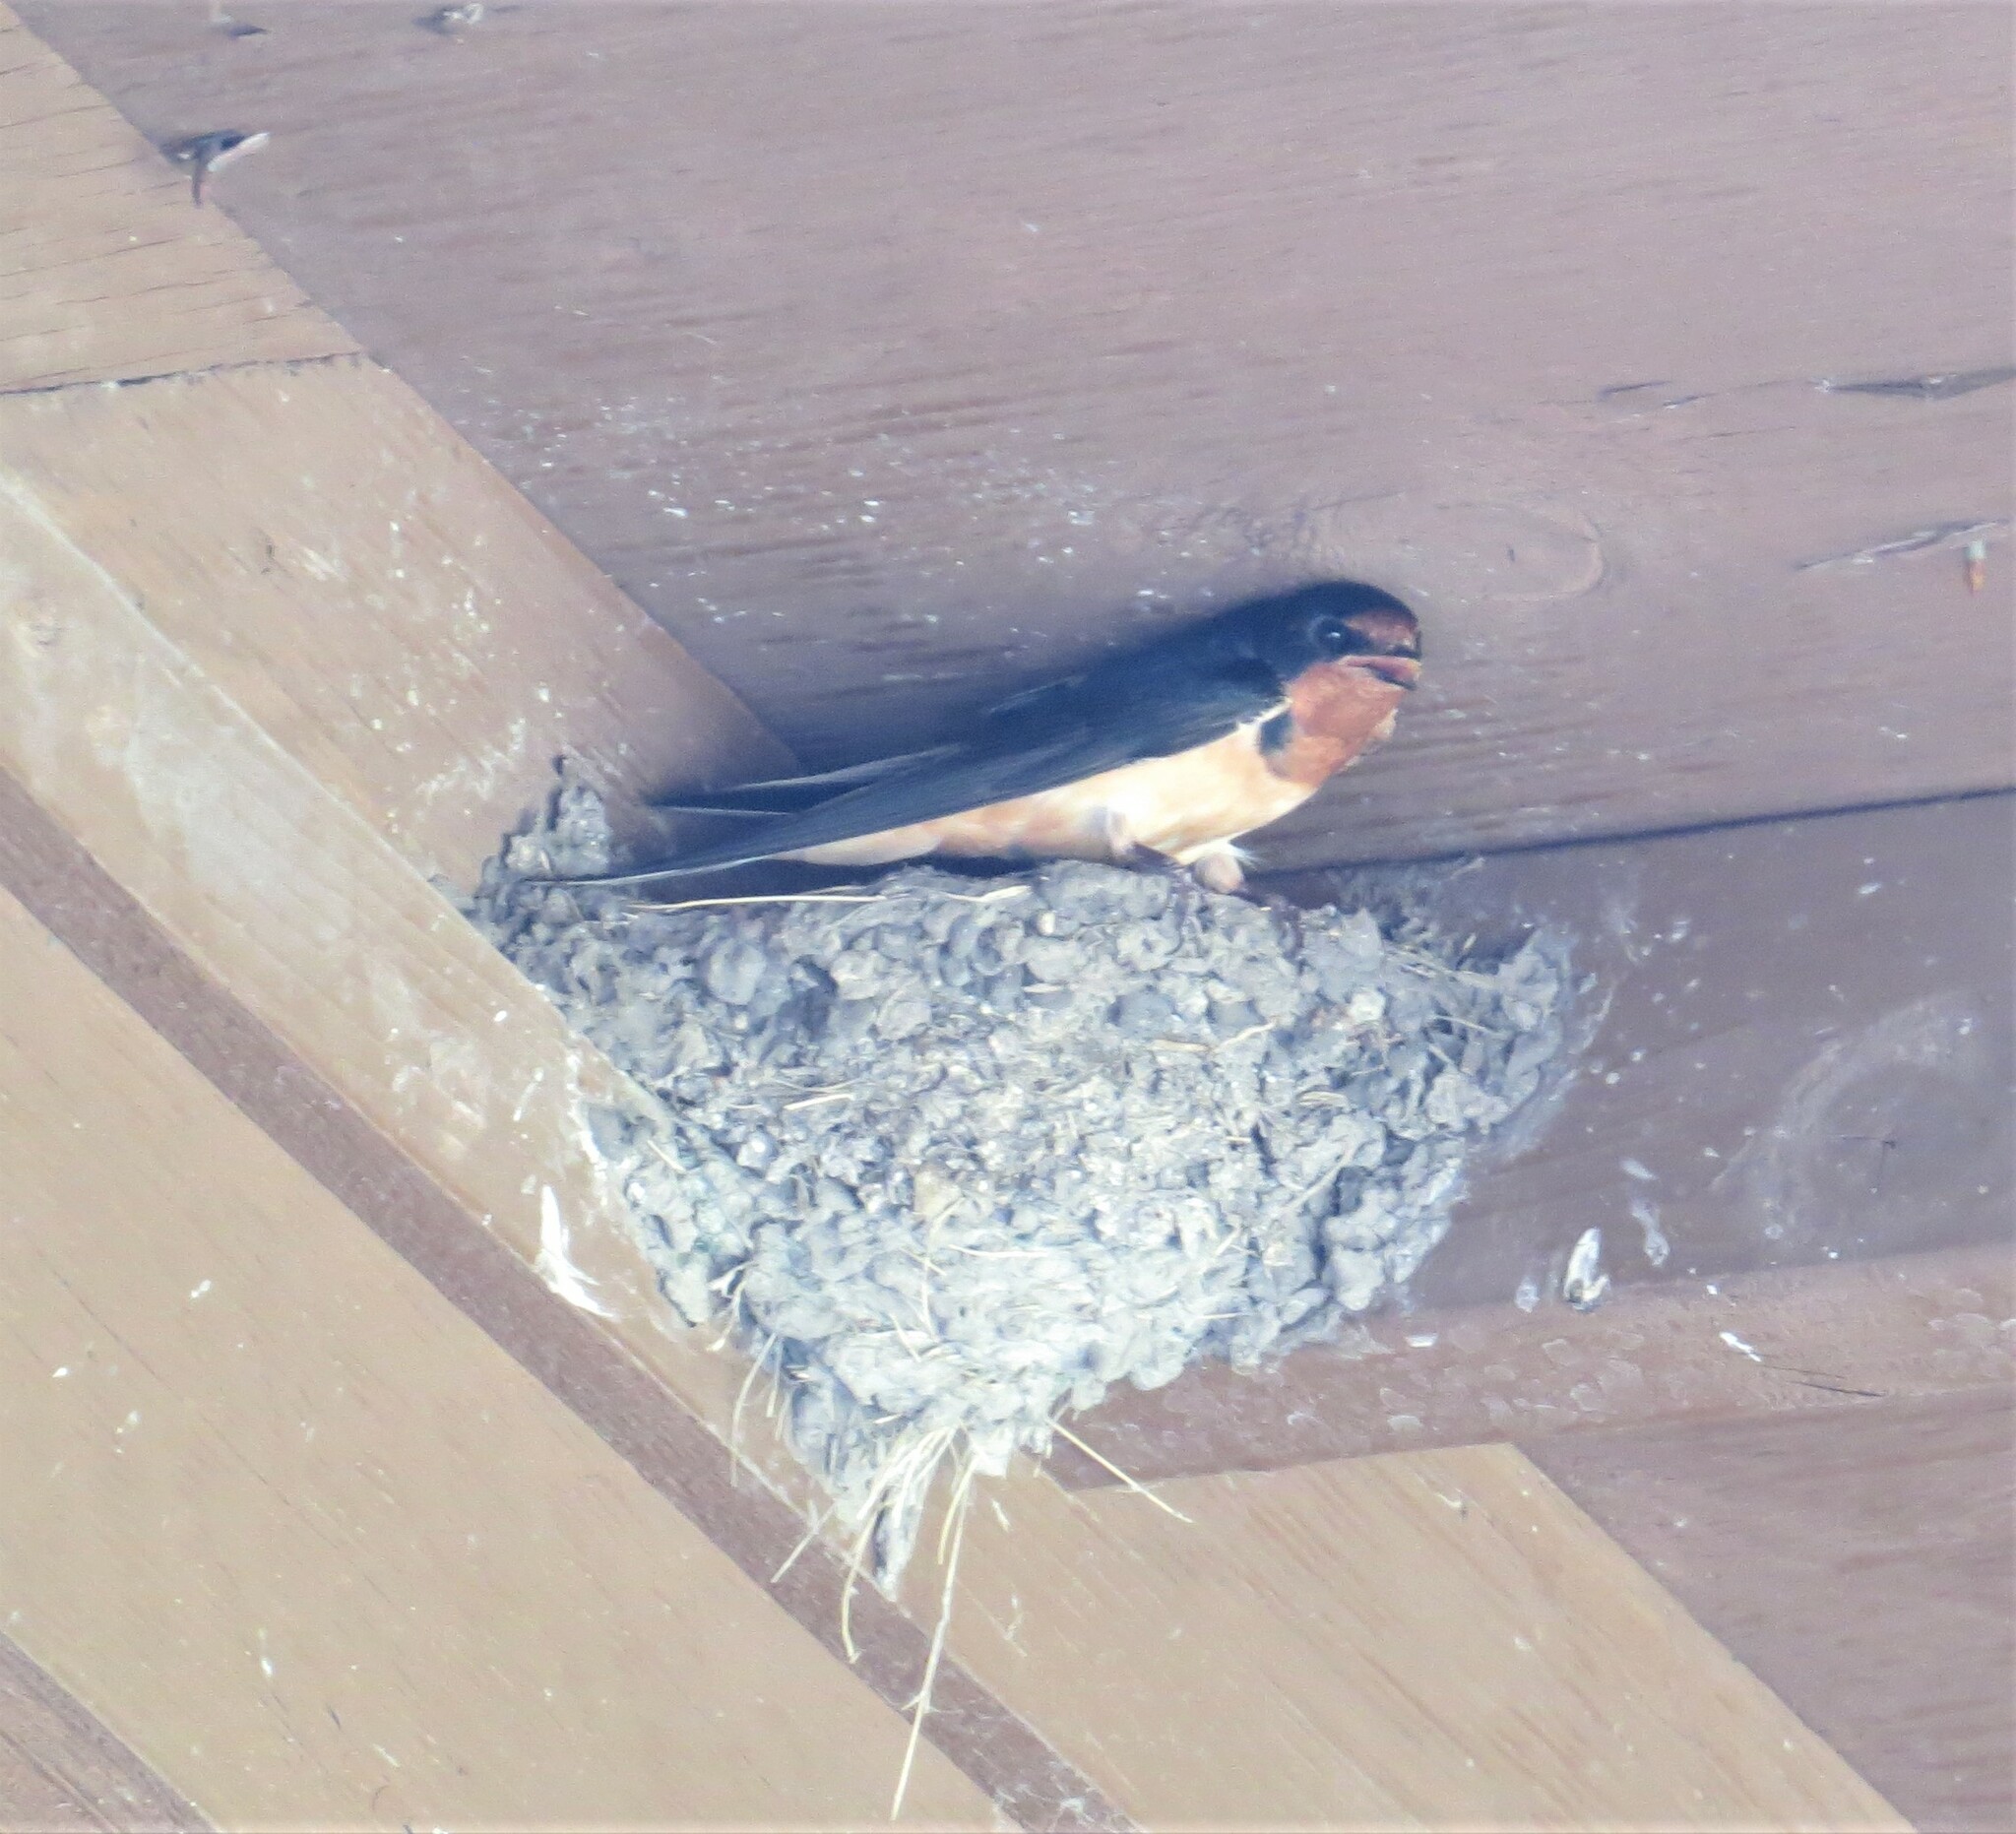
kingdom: Animalia
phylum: Chordata
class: Aves
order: Passeriformes
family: Hirundinidae
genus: Hirundo
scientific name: Hirundo rustica
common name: Barn swallow
